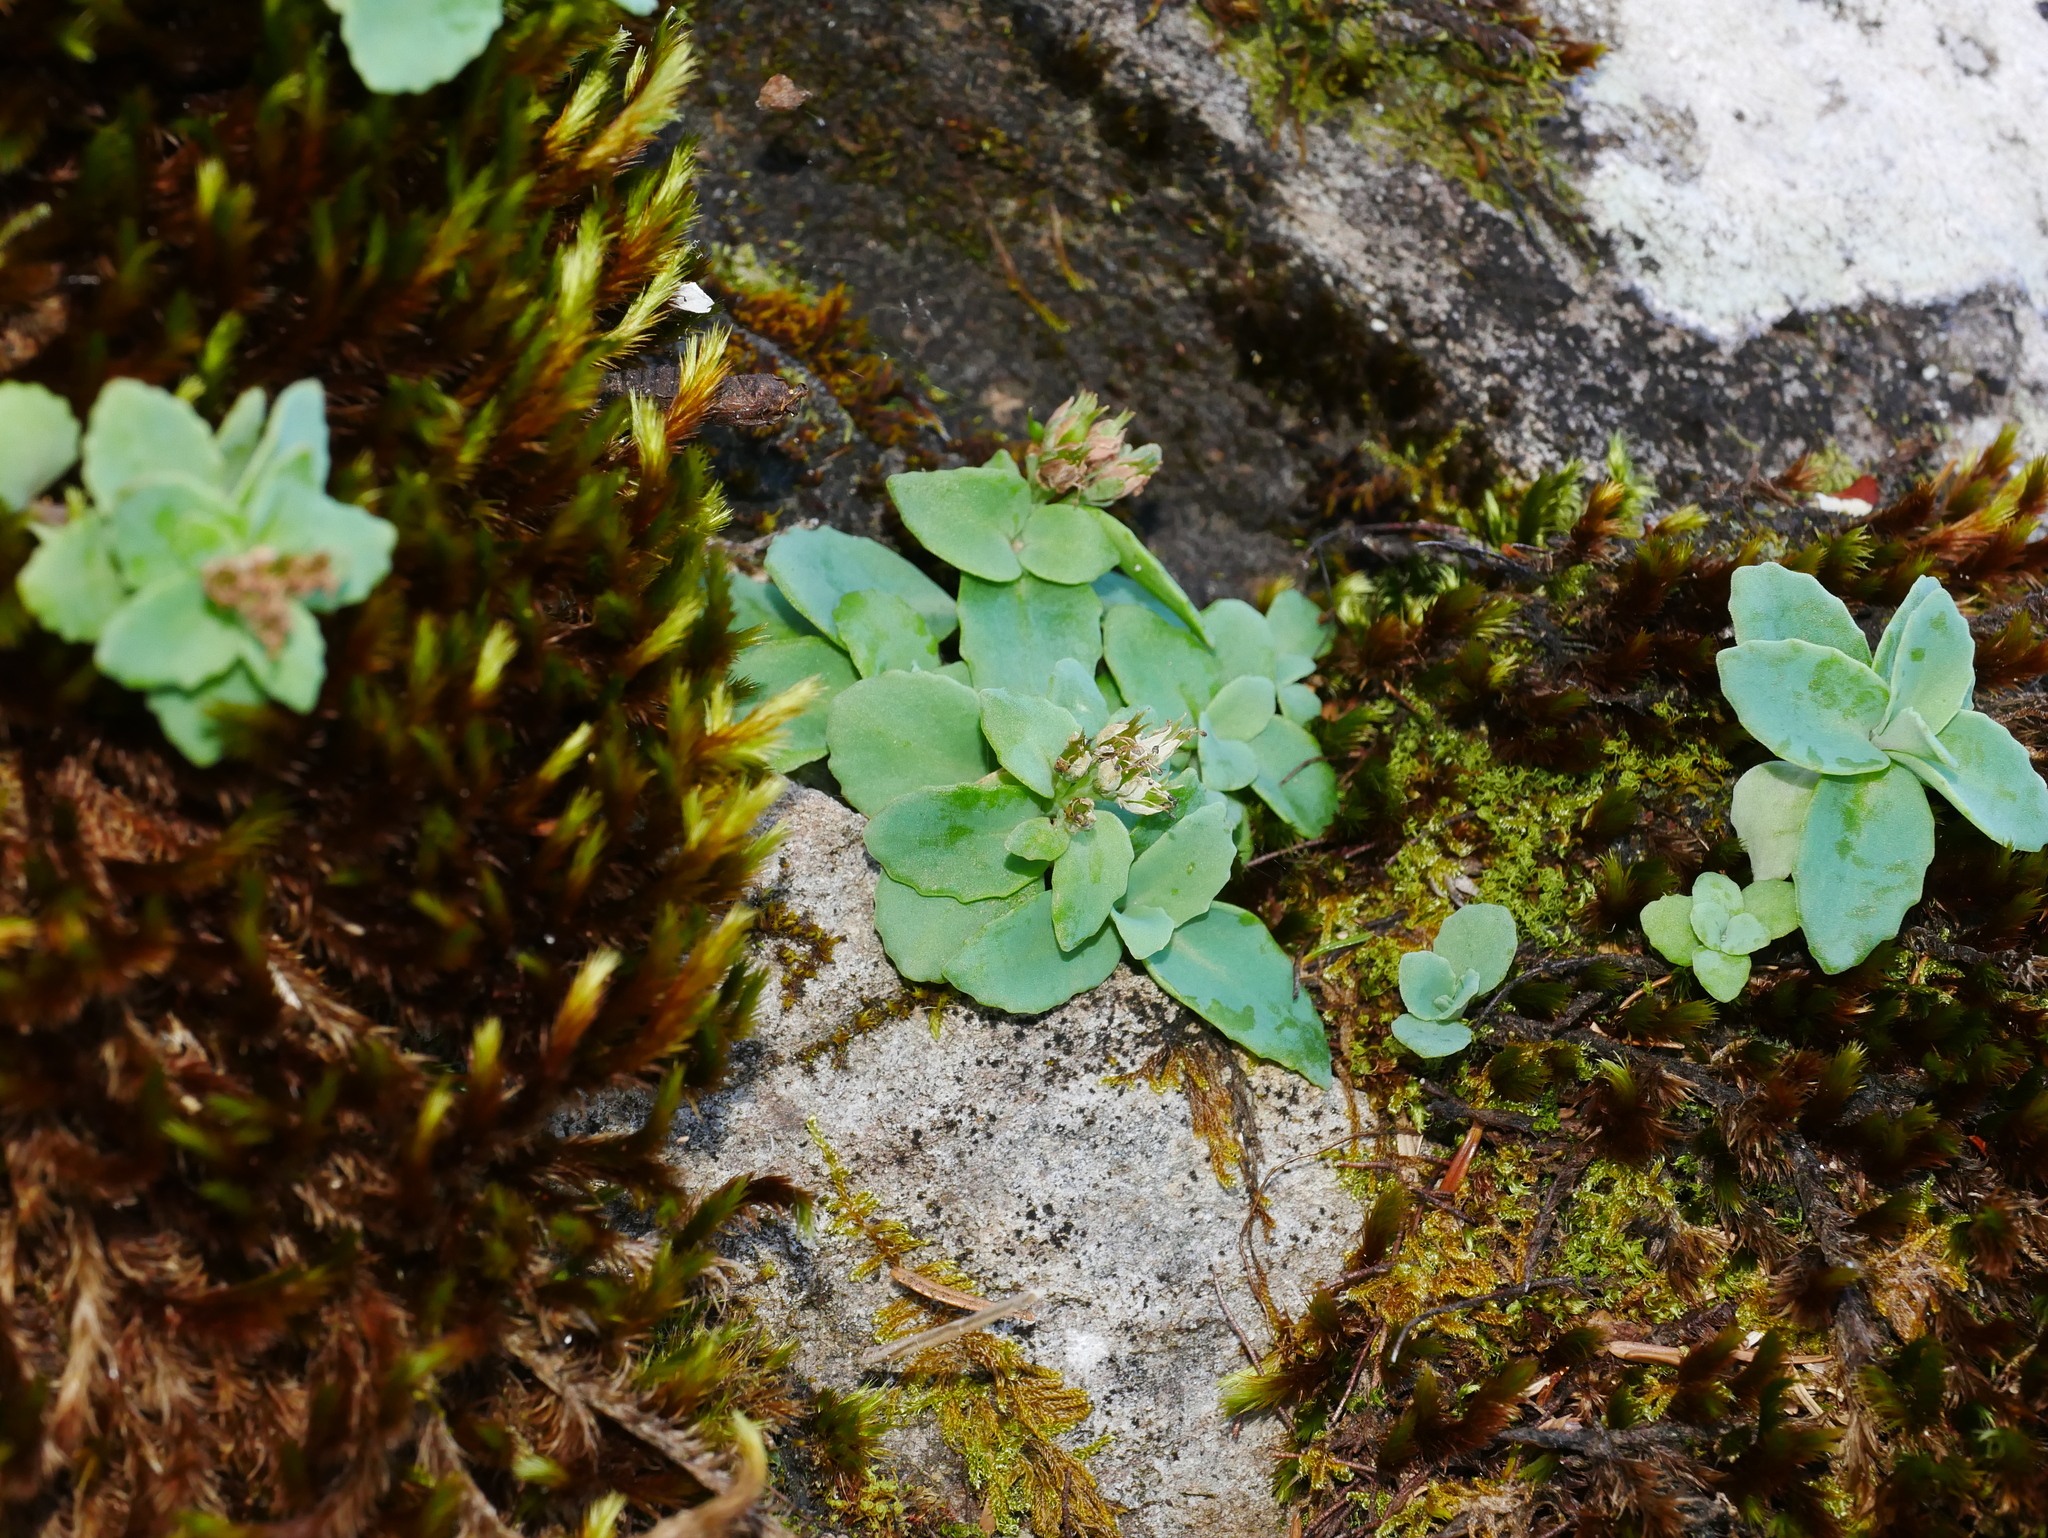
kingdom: Plantae
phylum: Tracheophyta
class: Magnoliopsida
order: Saxifragales
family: Crassulaceae
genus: Phedimus
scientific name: Phedimus subcapitatus
